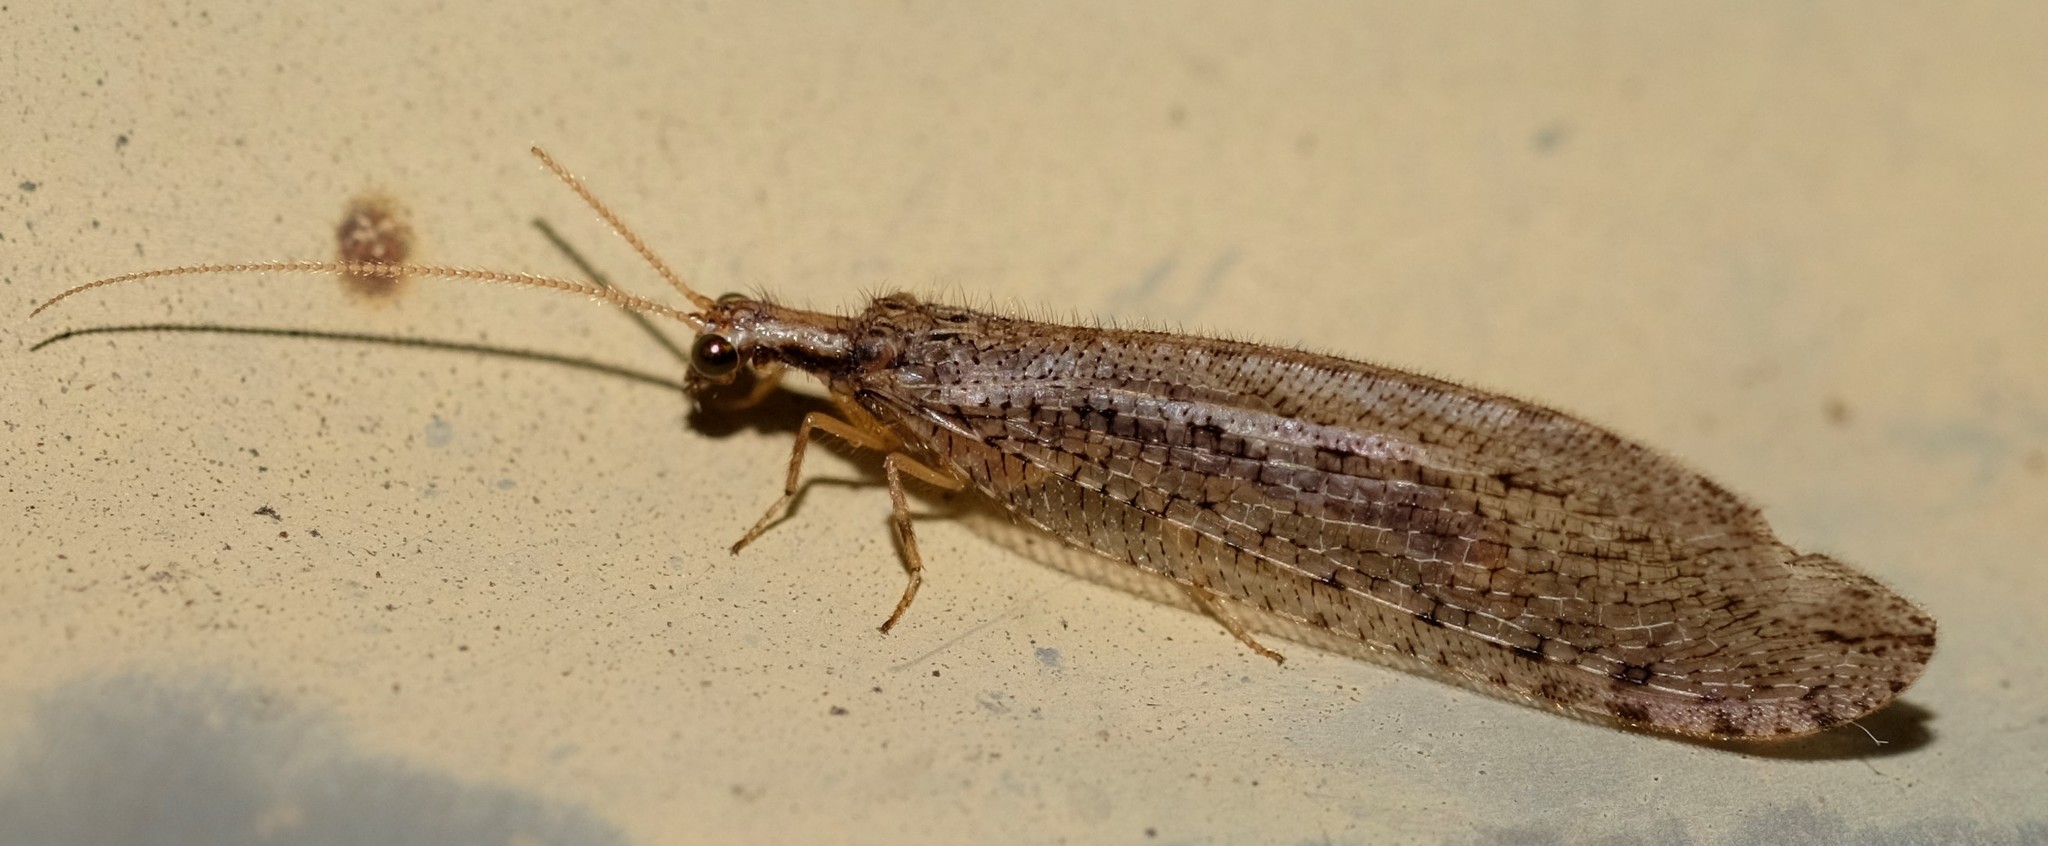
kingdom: Animalia
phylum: Arthropoda
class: Insecta
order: Neuroptera
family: Osmylidae
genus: Stenosmylus
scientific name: Stenosmylus tenuis
